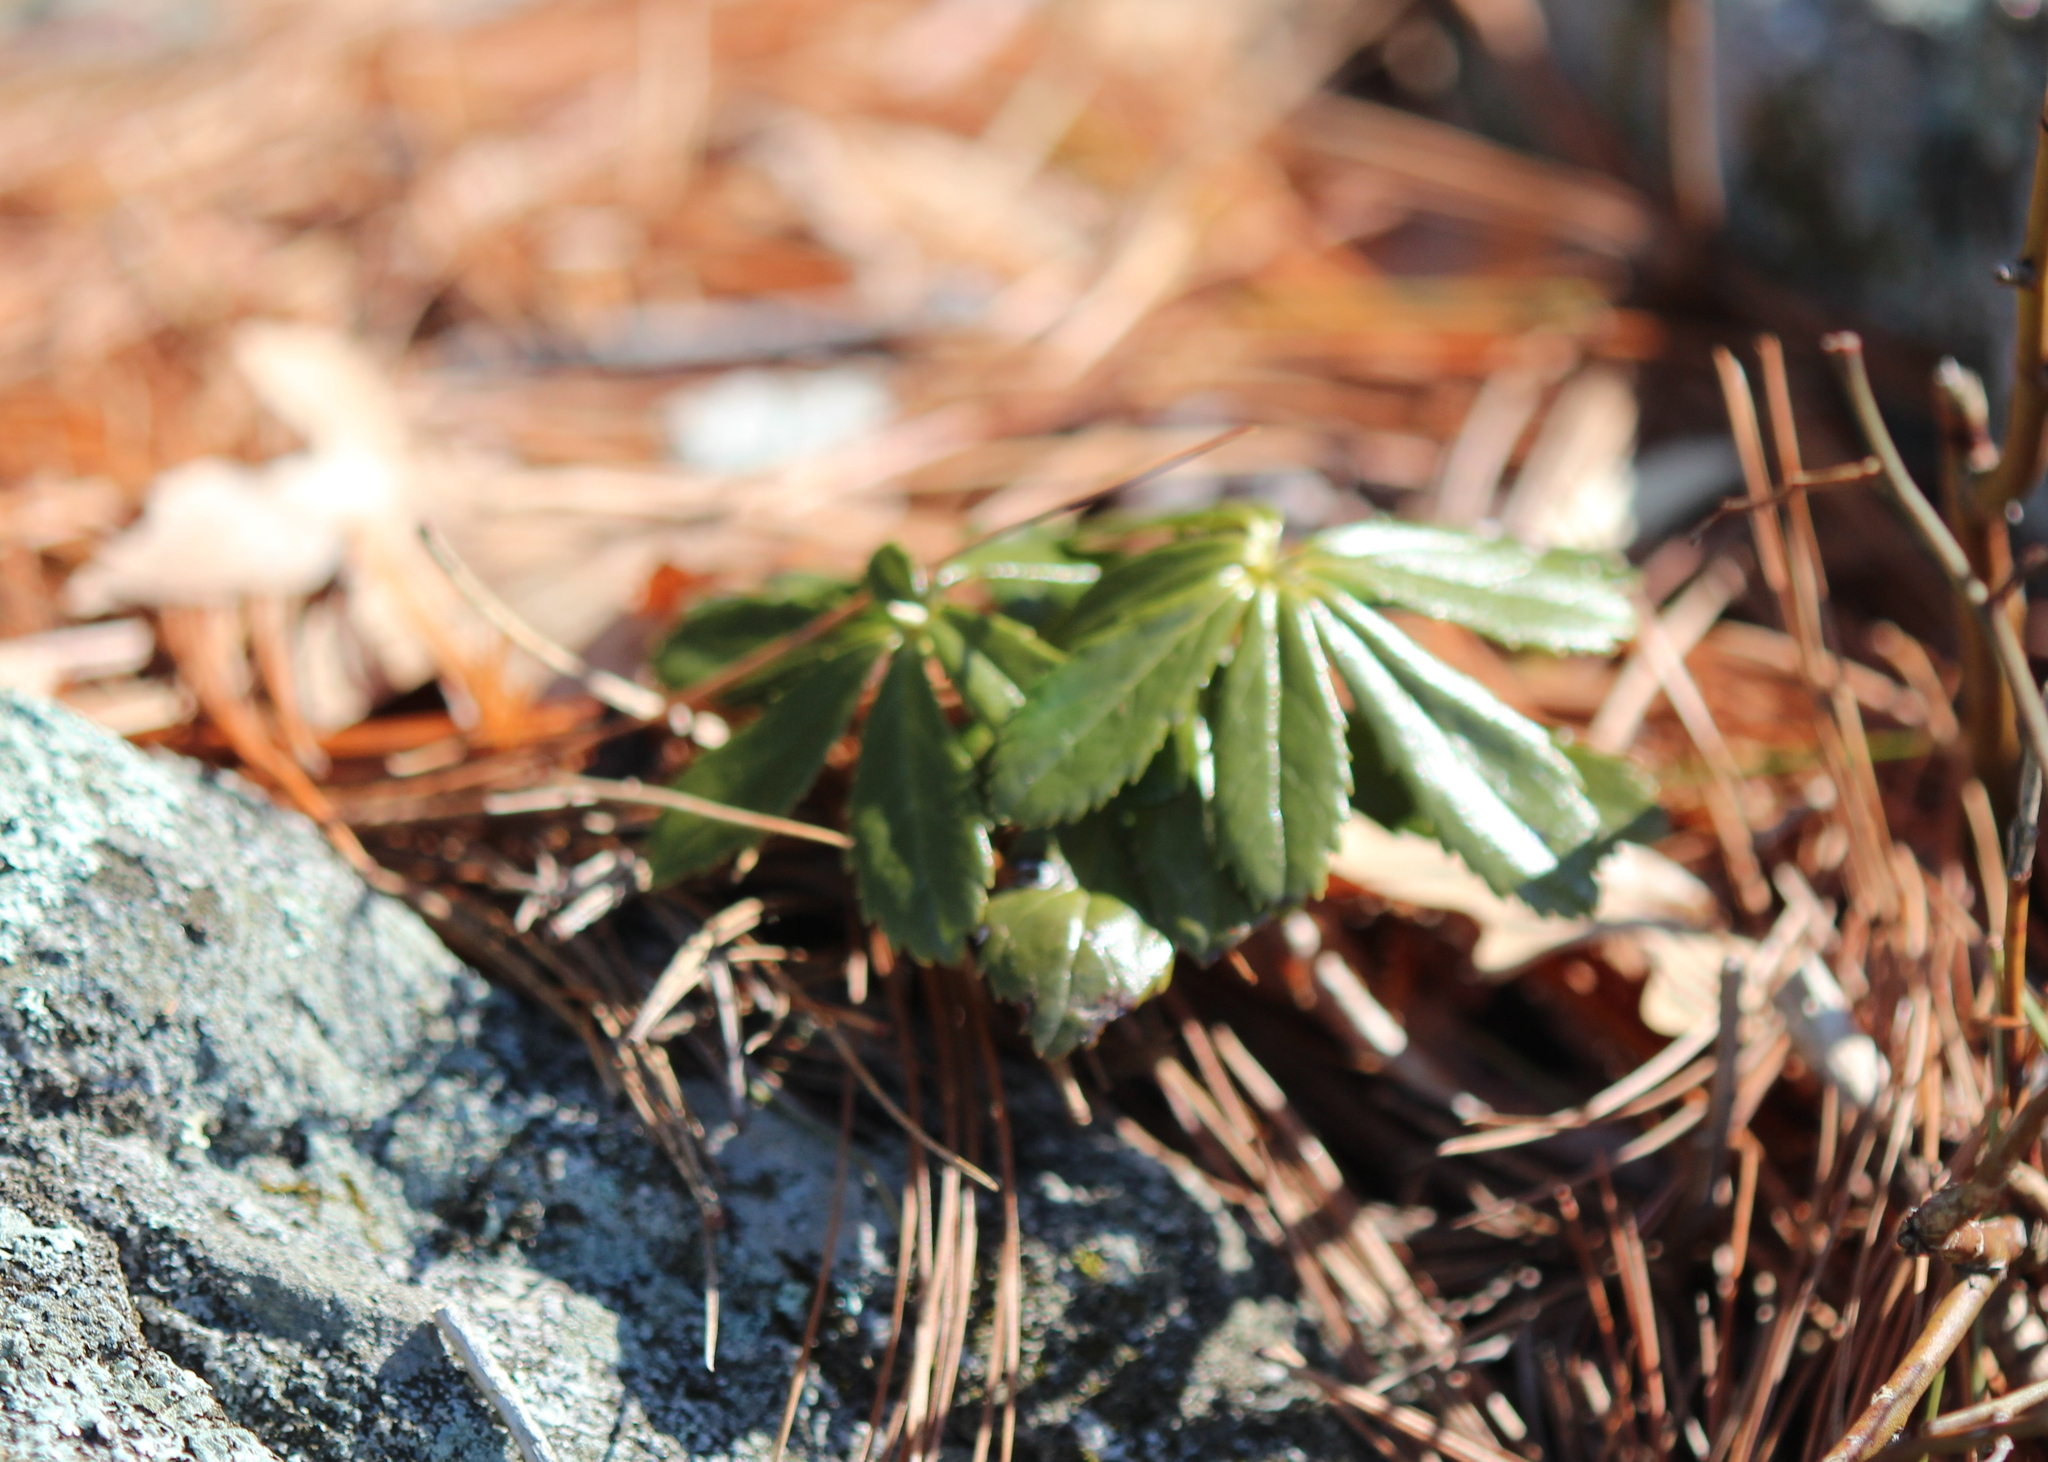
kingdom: Plantae
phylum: Tracheophyta
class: Magnoliopsida
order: Ericales
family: Ericaceae
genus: Chimaphila
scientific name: Chimaphila umbellata
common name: Pipsissewa
